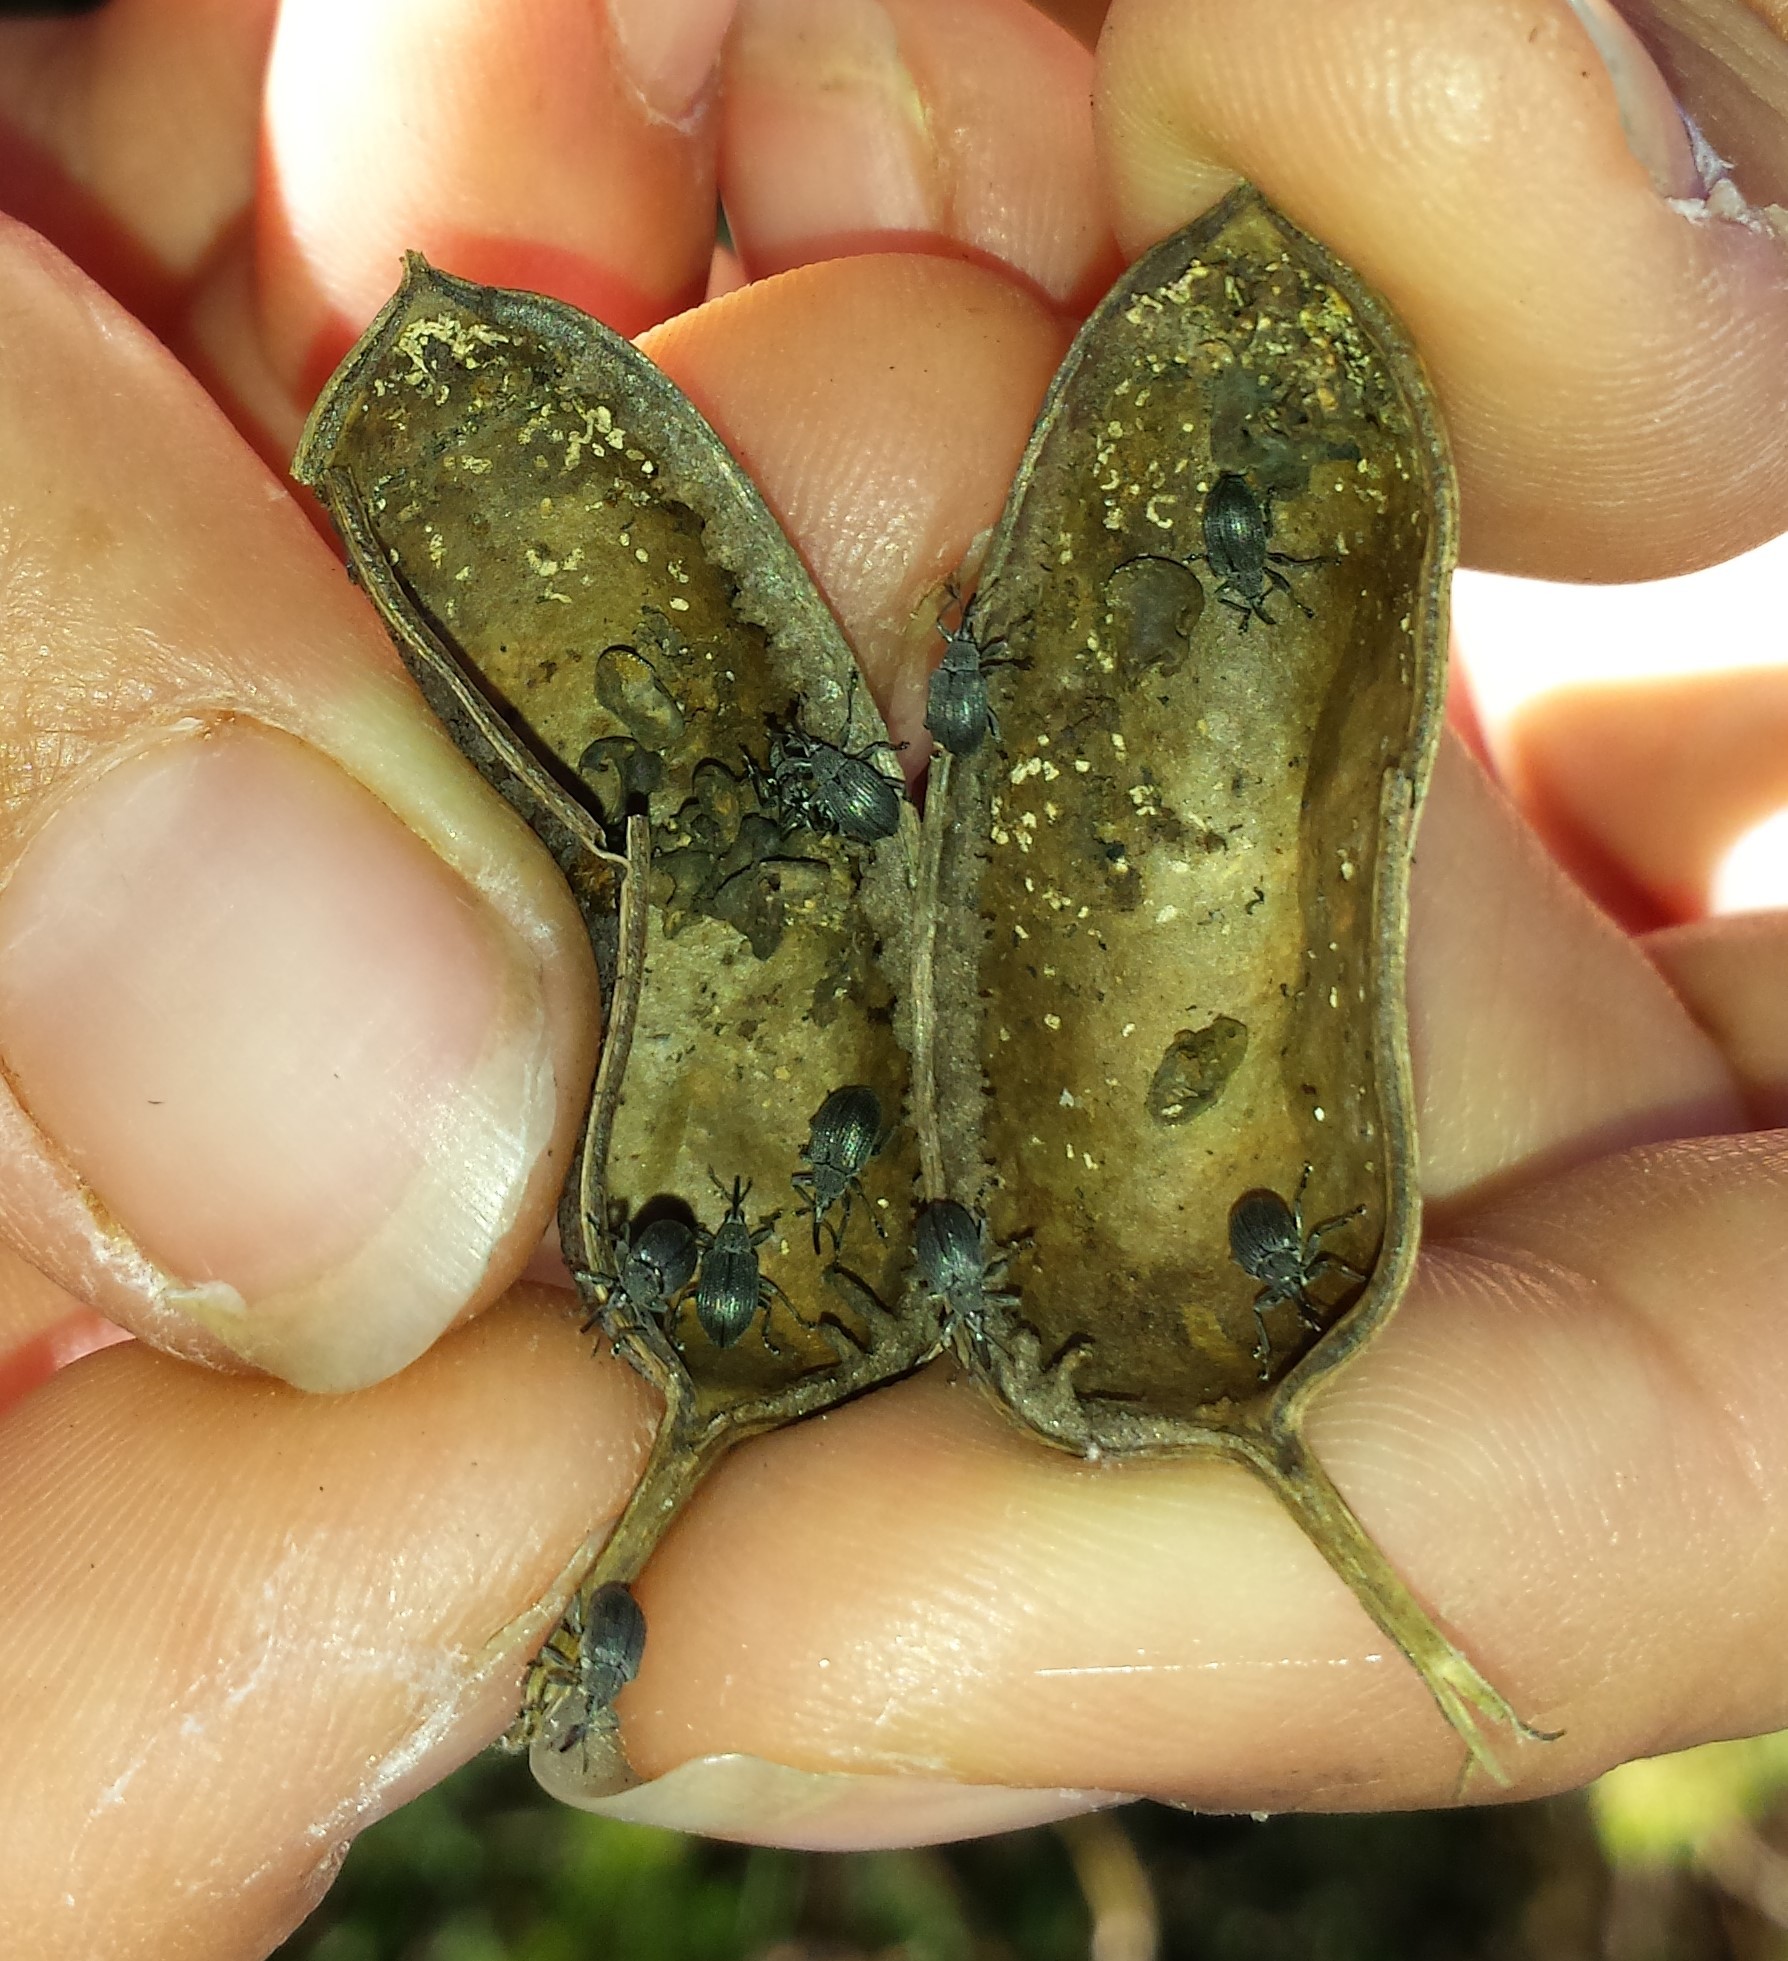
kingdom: Animalia
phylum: Arthropoda
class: Insecta
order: Coleoptera
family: Brentidae
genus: Trichapion
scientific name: Trichapion
